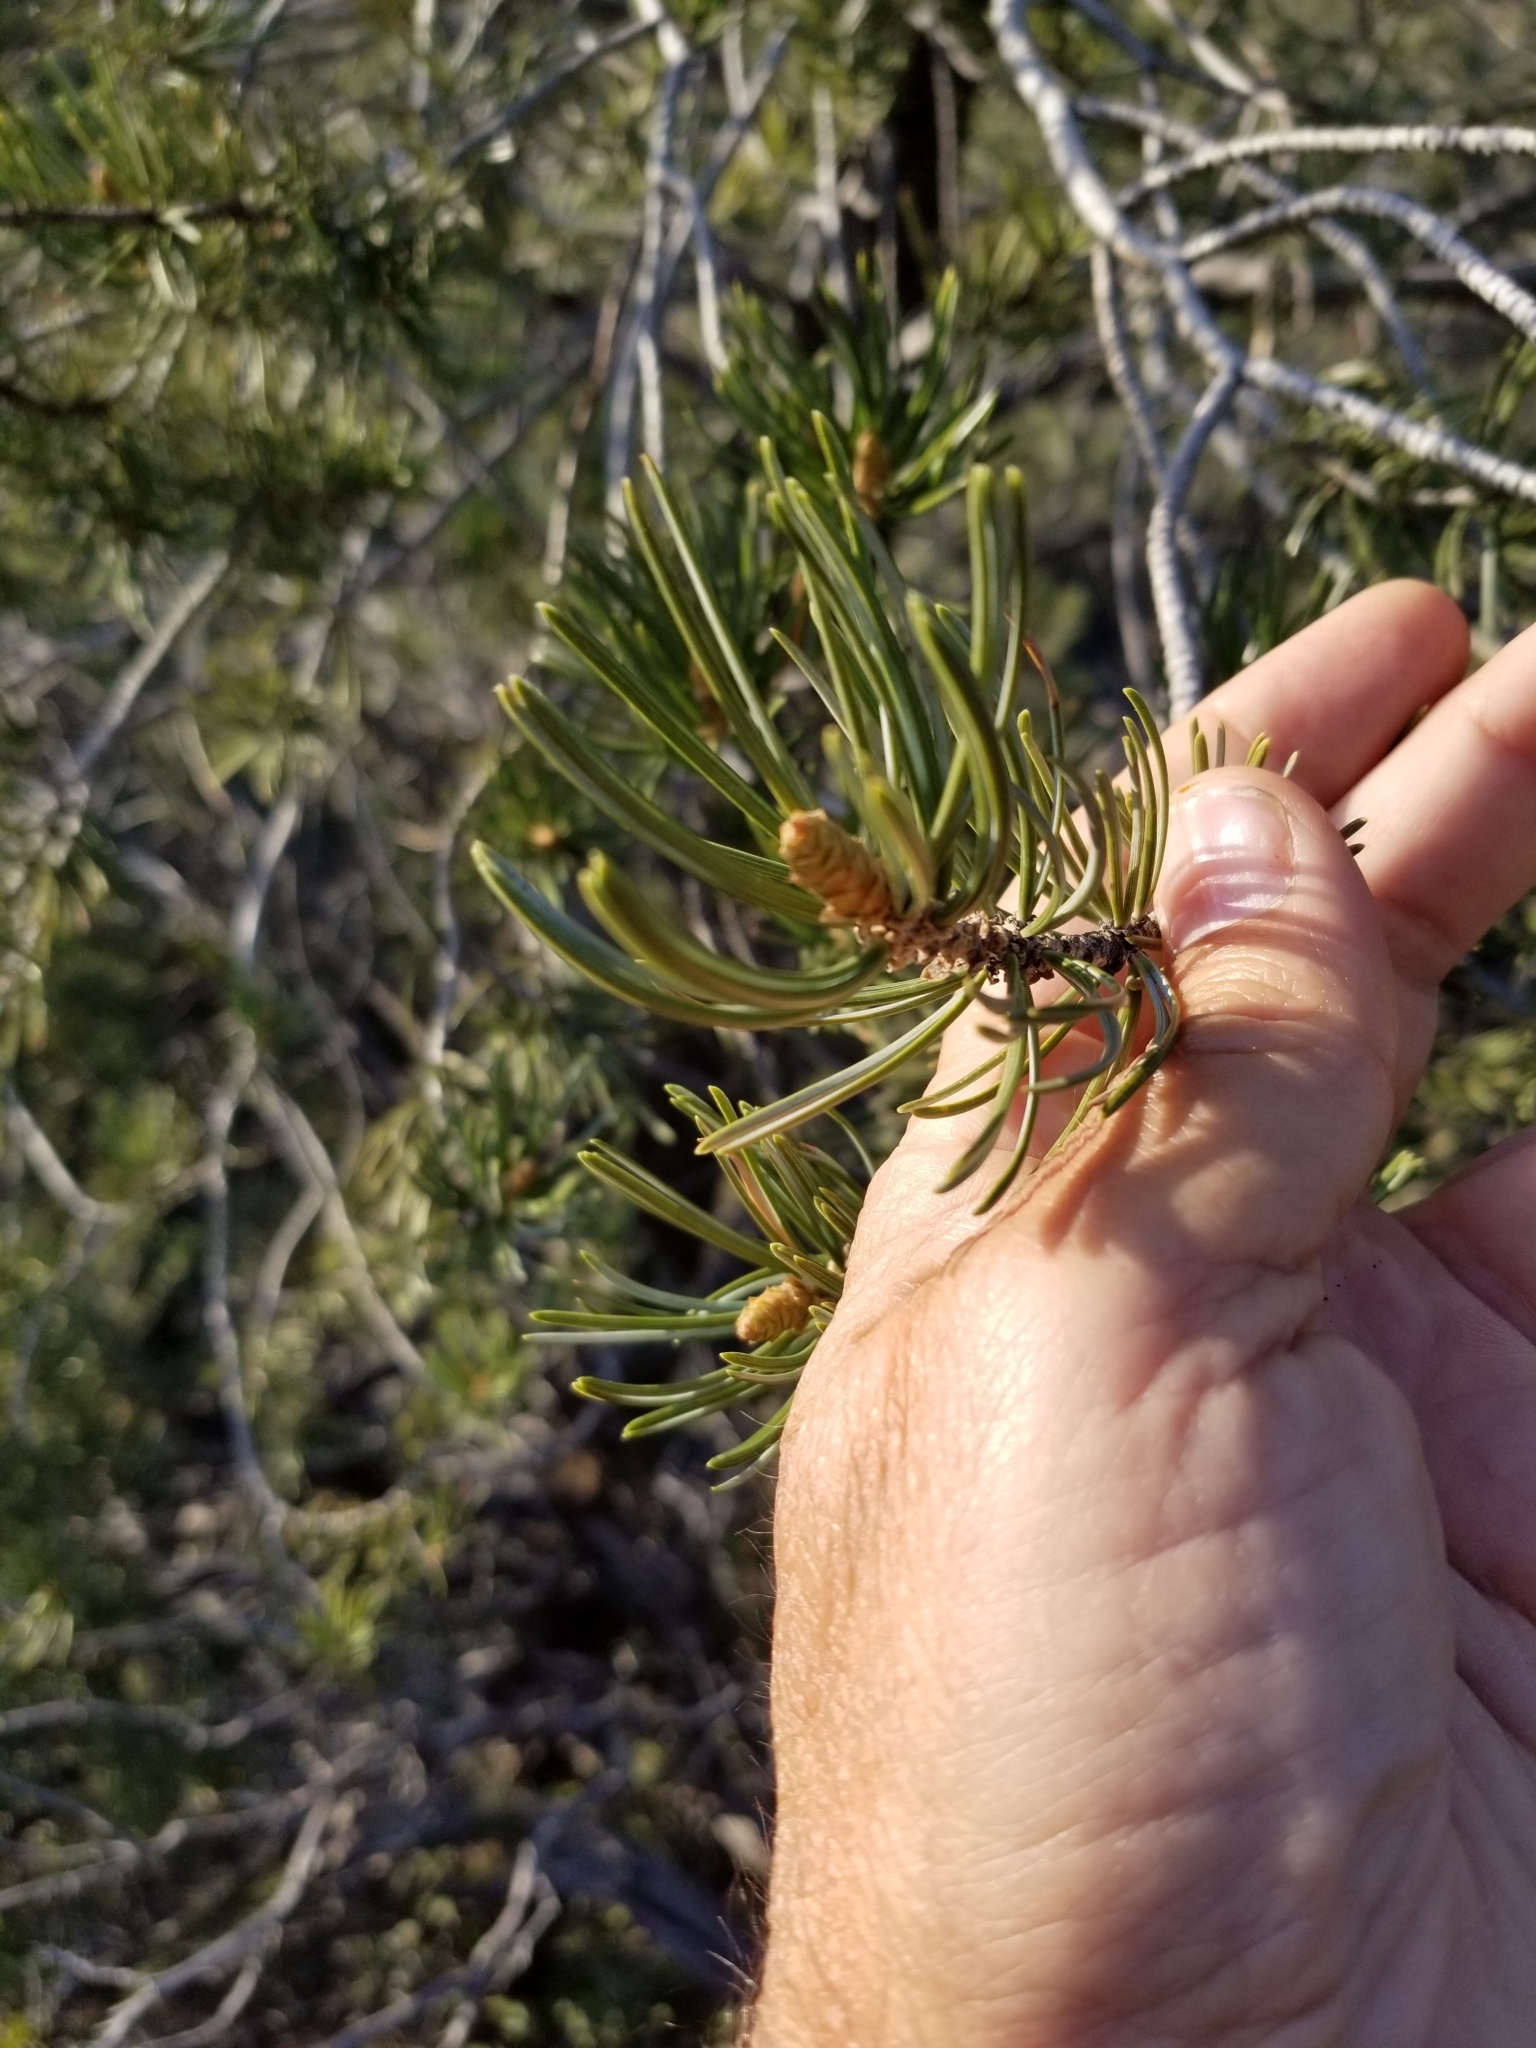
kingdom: Plantae
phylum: Tracheophyta
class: Pinopsida
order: Pinales
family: Pinaceae
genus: Pinus
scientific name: Pinus quadrifolia
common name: Parry pinyon
